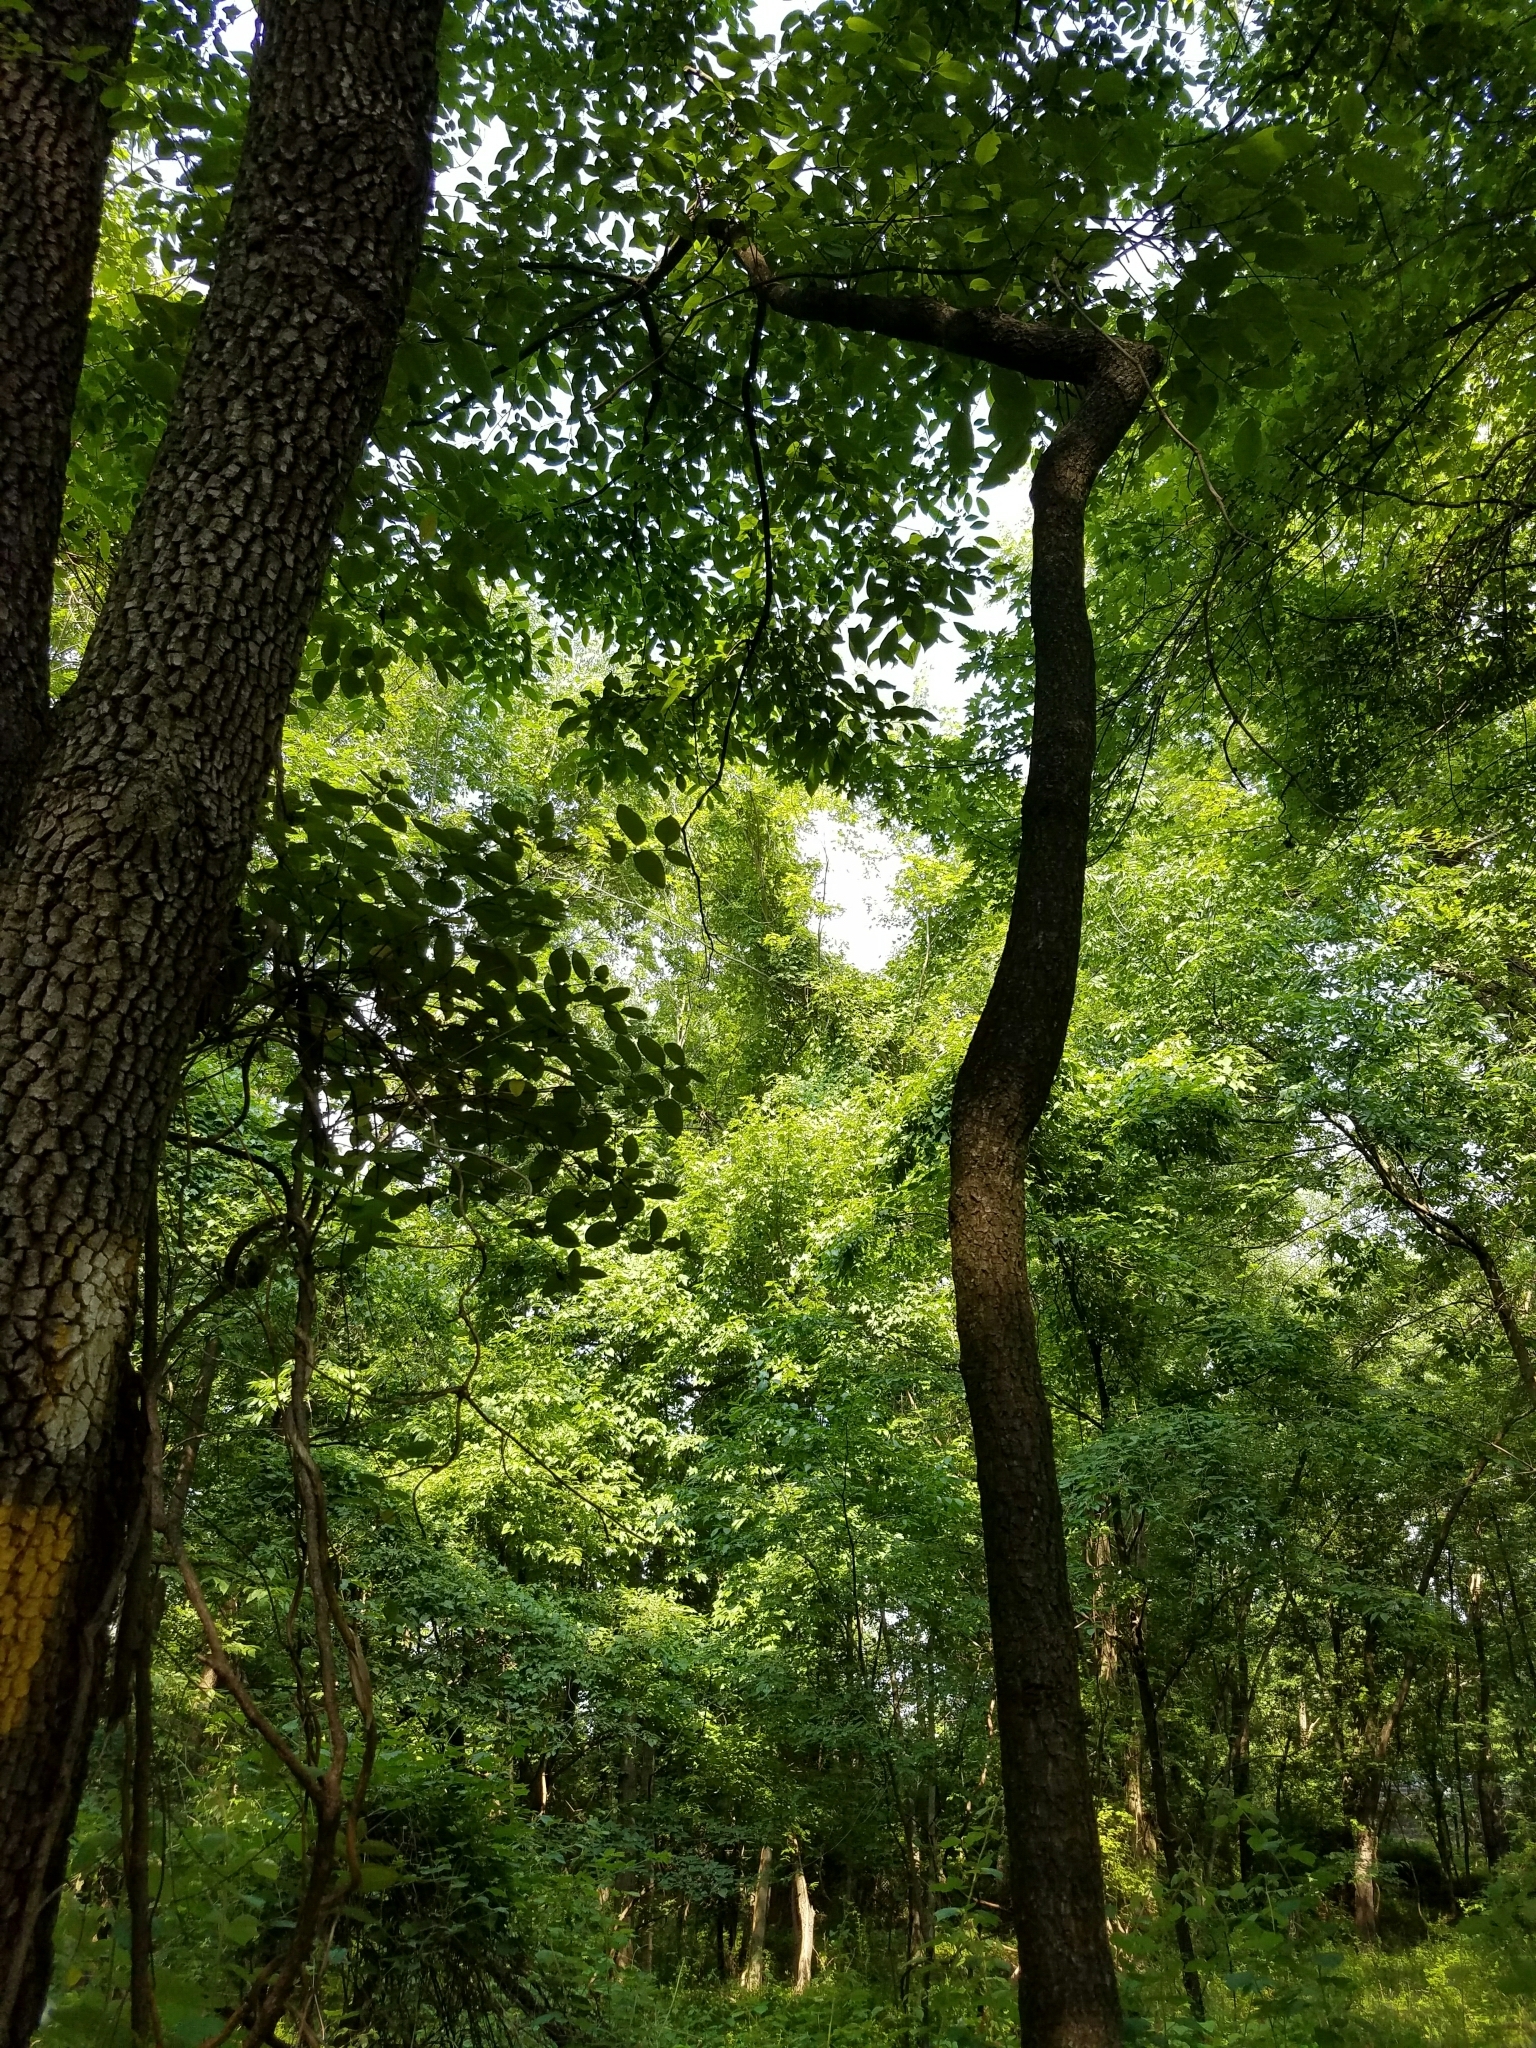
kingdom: Plantae
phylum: Tracheophyta
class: Magnoliopsida
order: Ericales
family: Ebenaceae
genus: Diospyros
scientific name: Diospyros virginiana
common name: Persimmon
